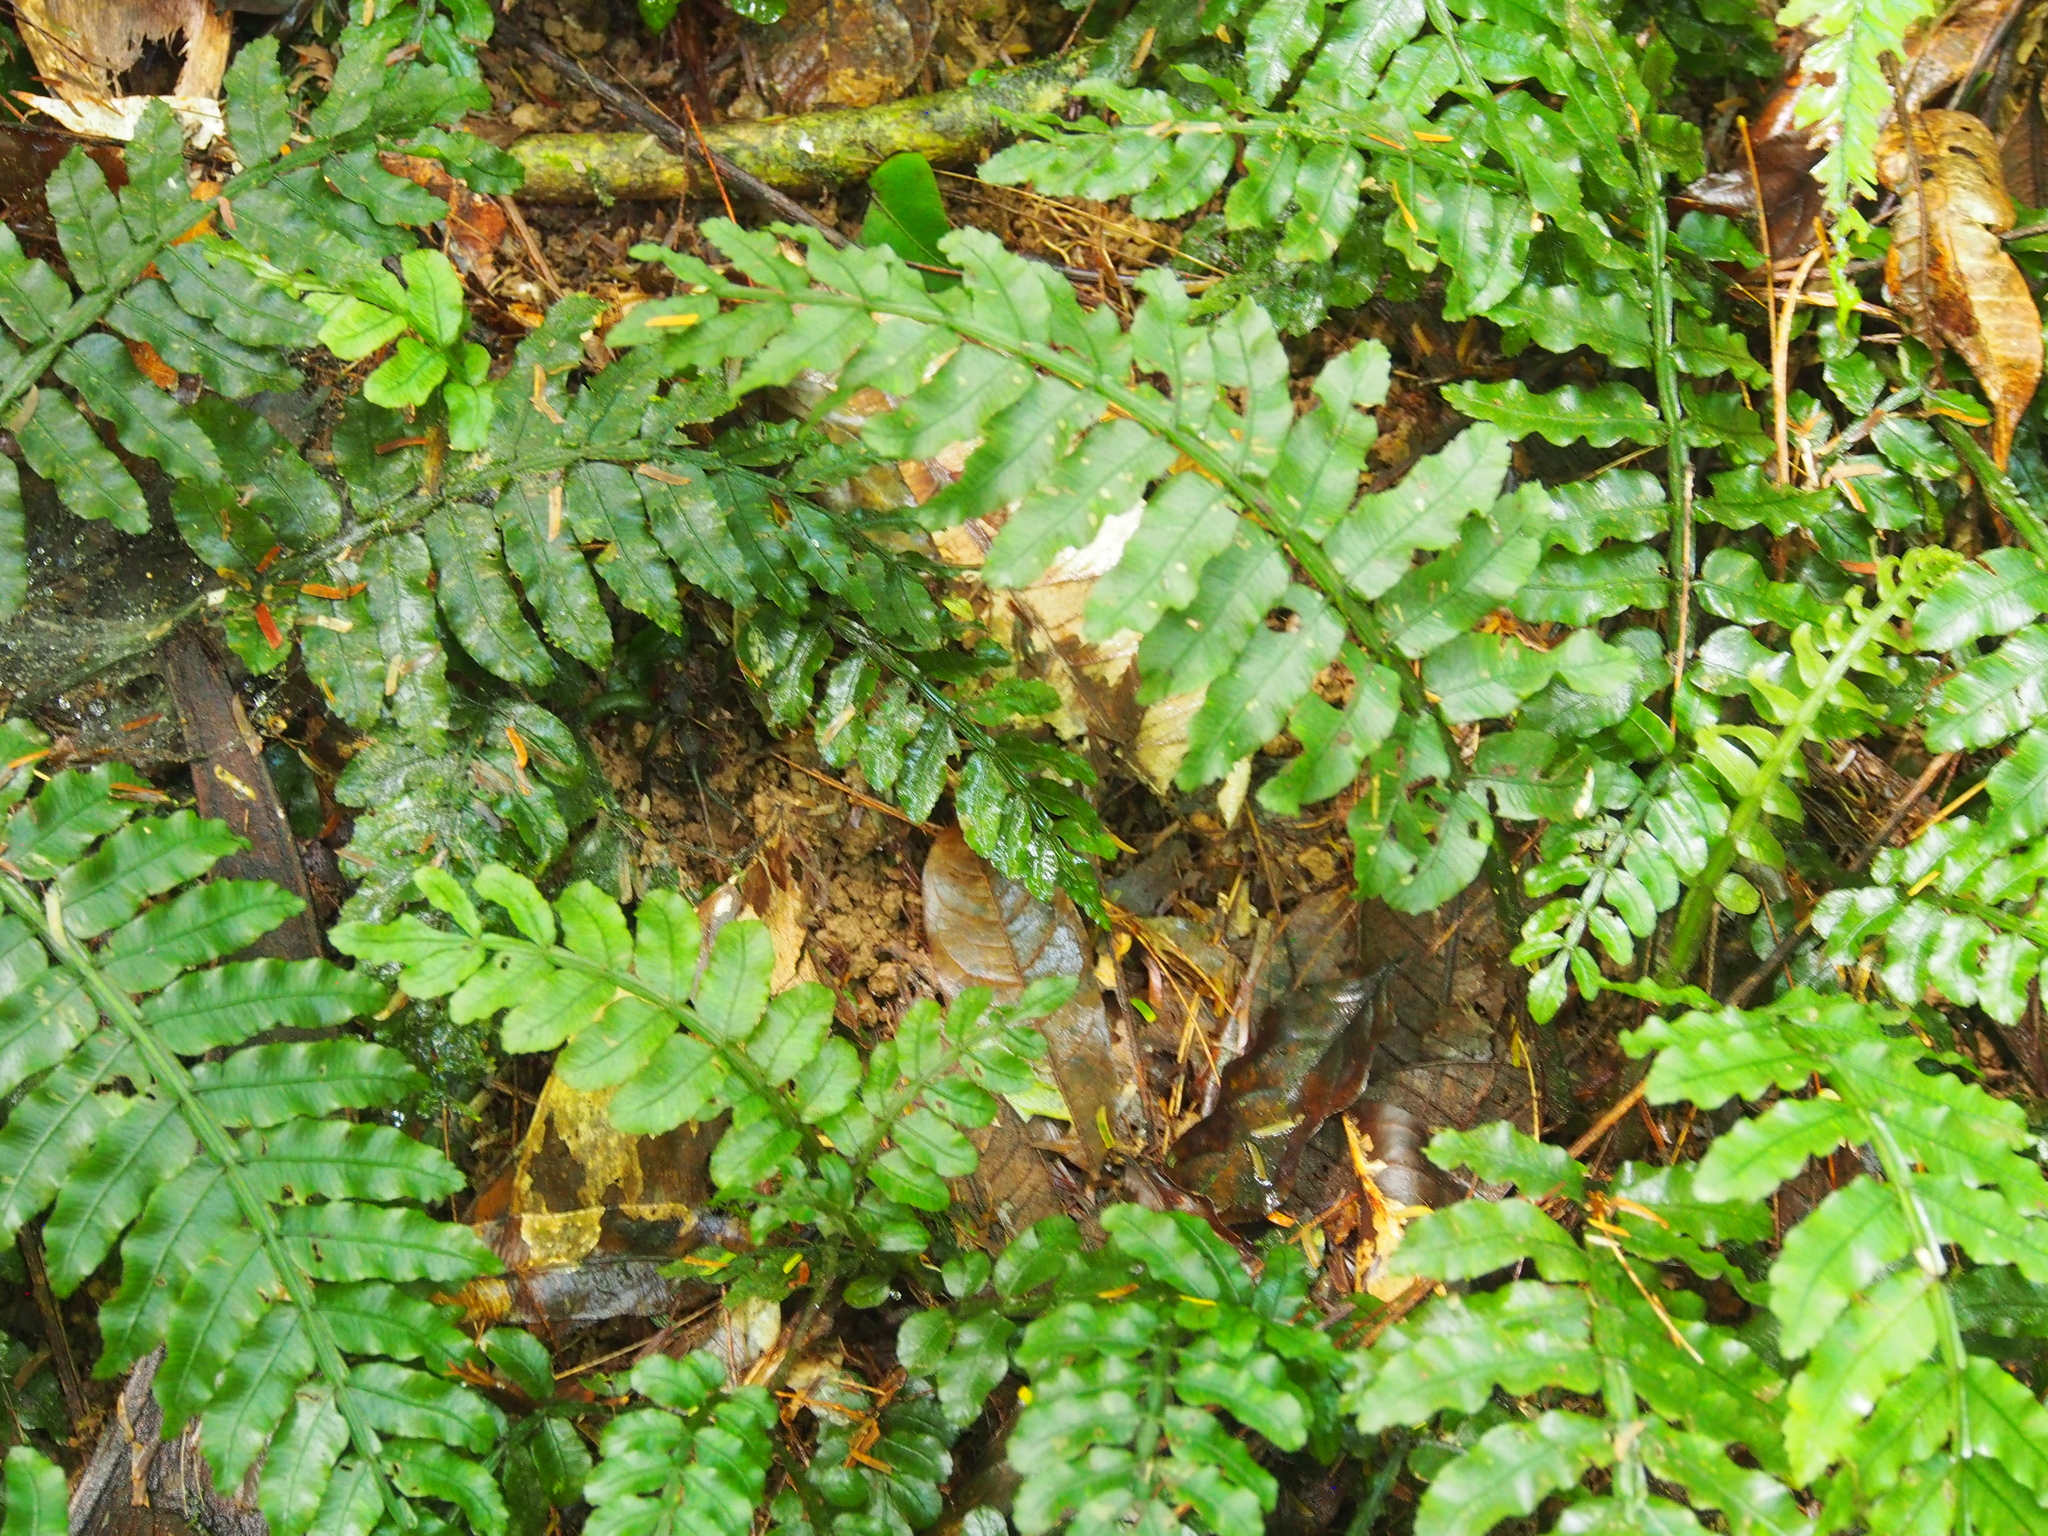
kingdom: Plantae
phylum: Tracheophyta
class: Polypodiopsida
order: Marattiales
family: Marattiaceae
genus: Danaea
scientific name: Danaea wendlandii
